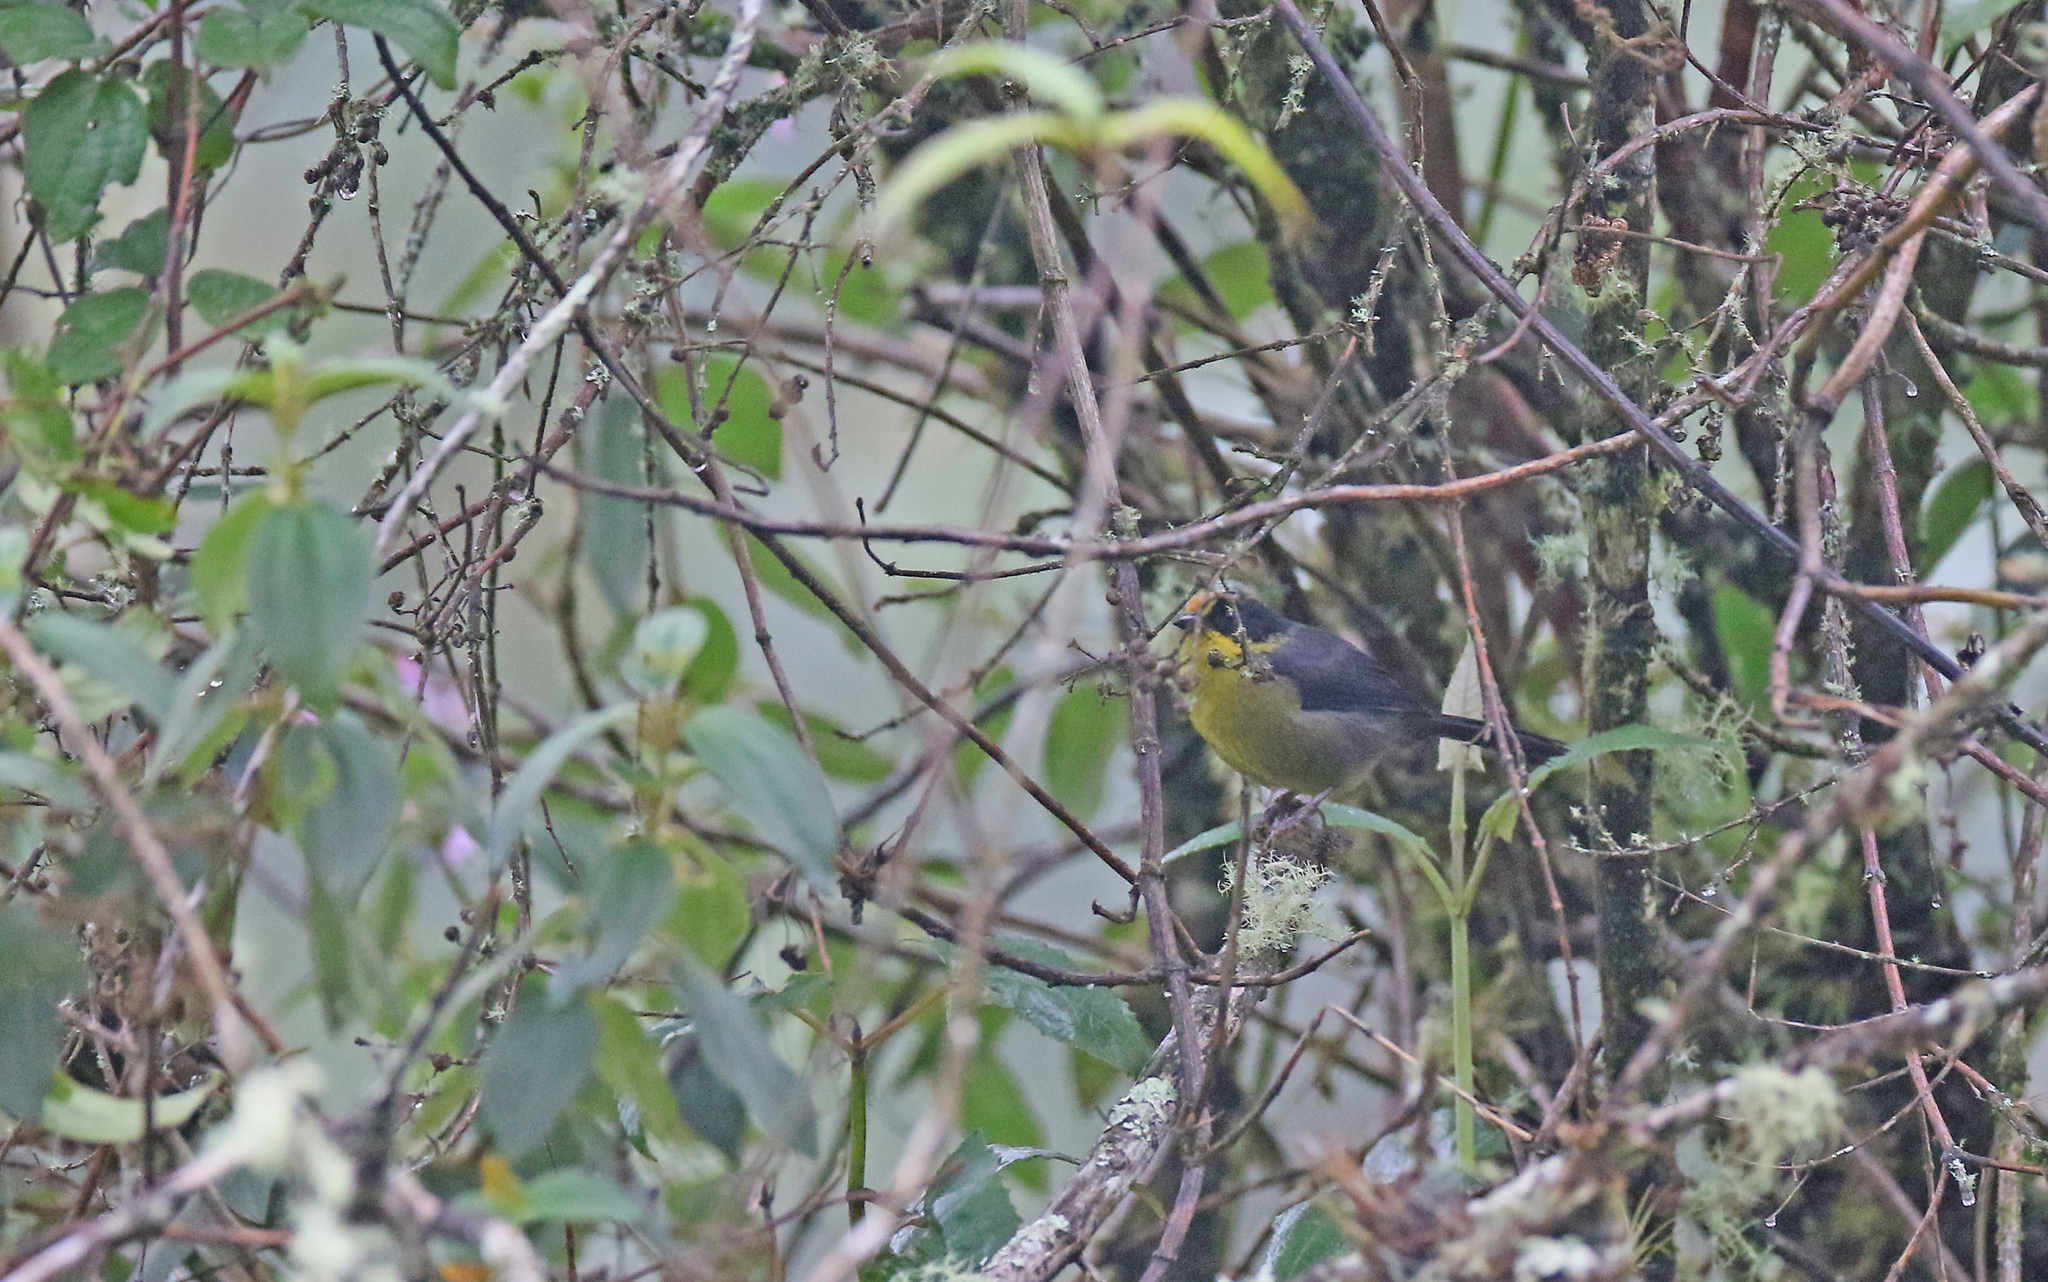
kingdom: Animalia
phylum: Chordata
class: Aves
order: Passeriformes
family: Passerellidae
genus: Atlapetes
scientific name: Atlapetes pallidinucha
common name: Pale-naped brushfinch
